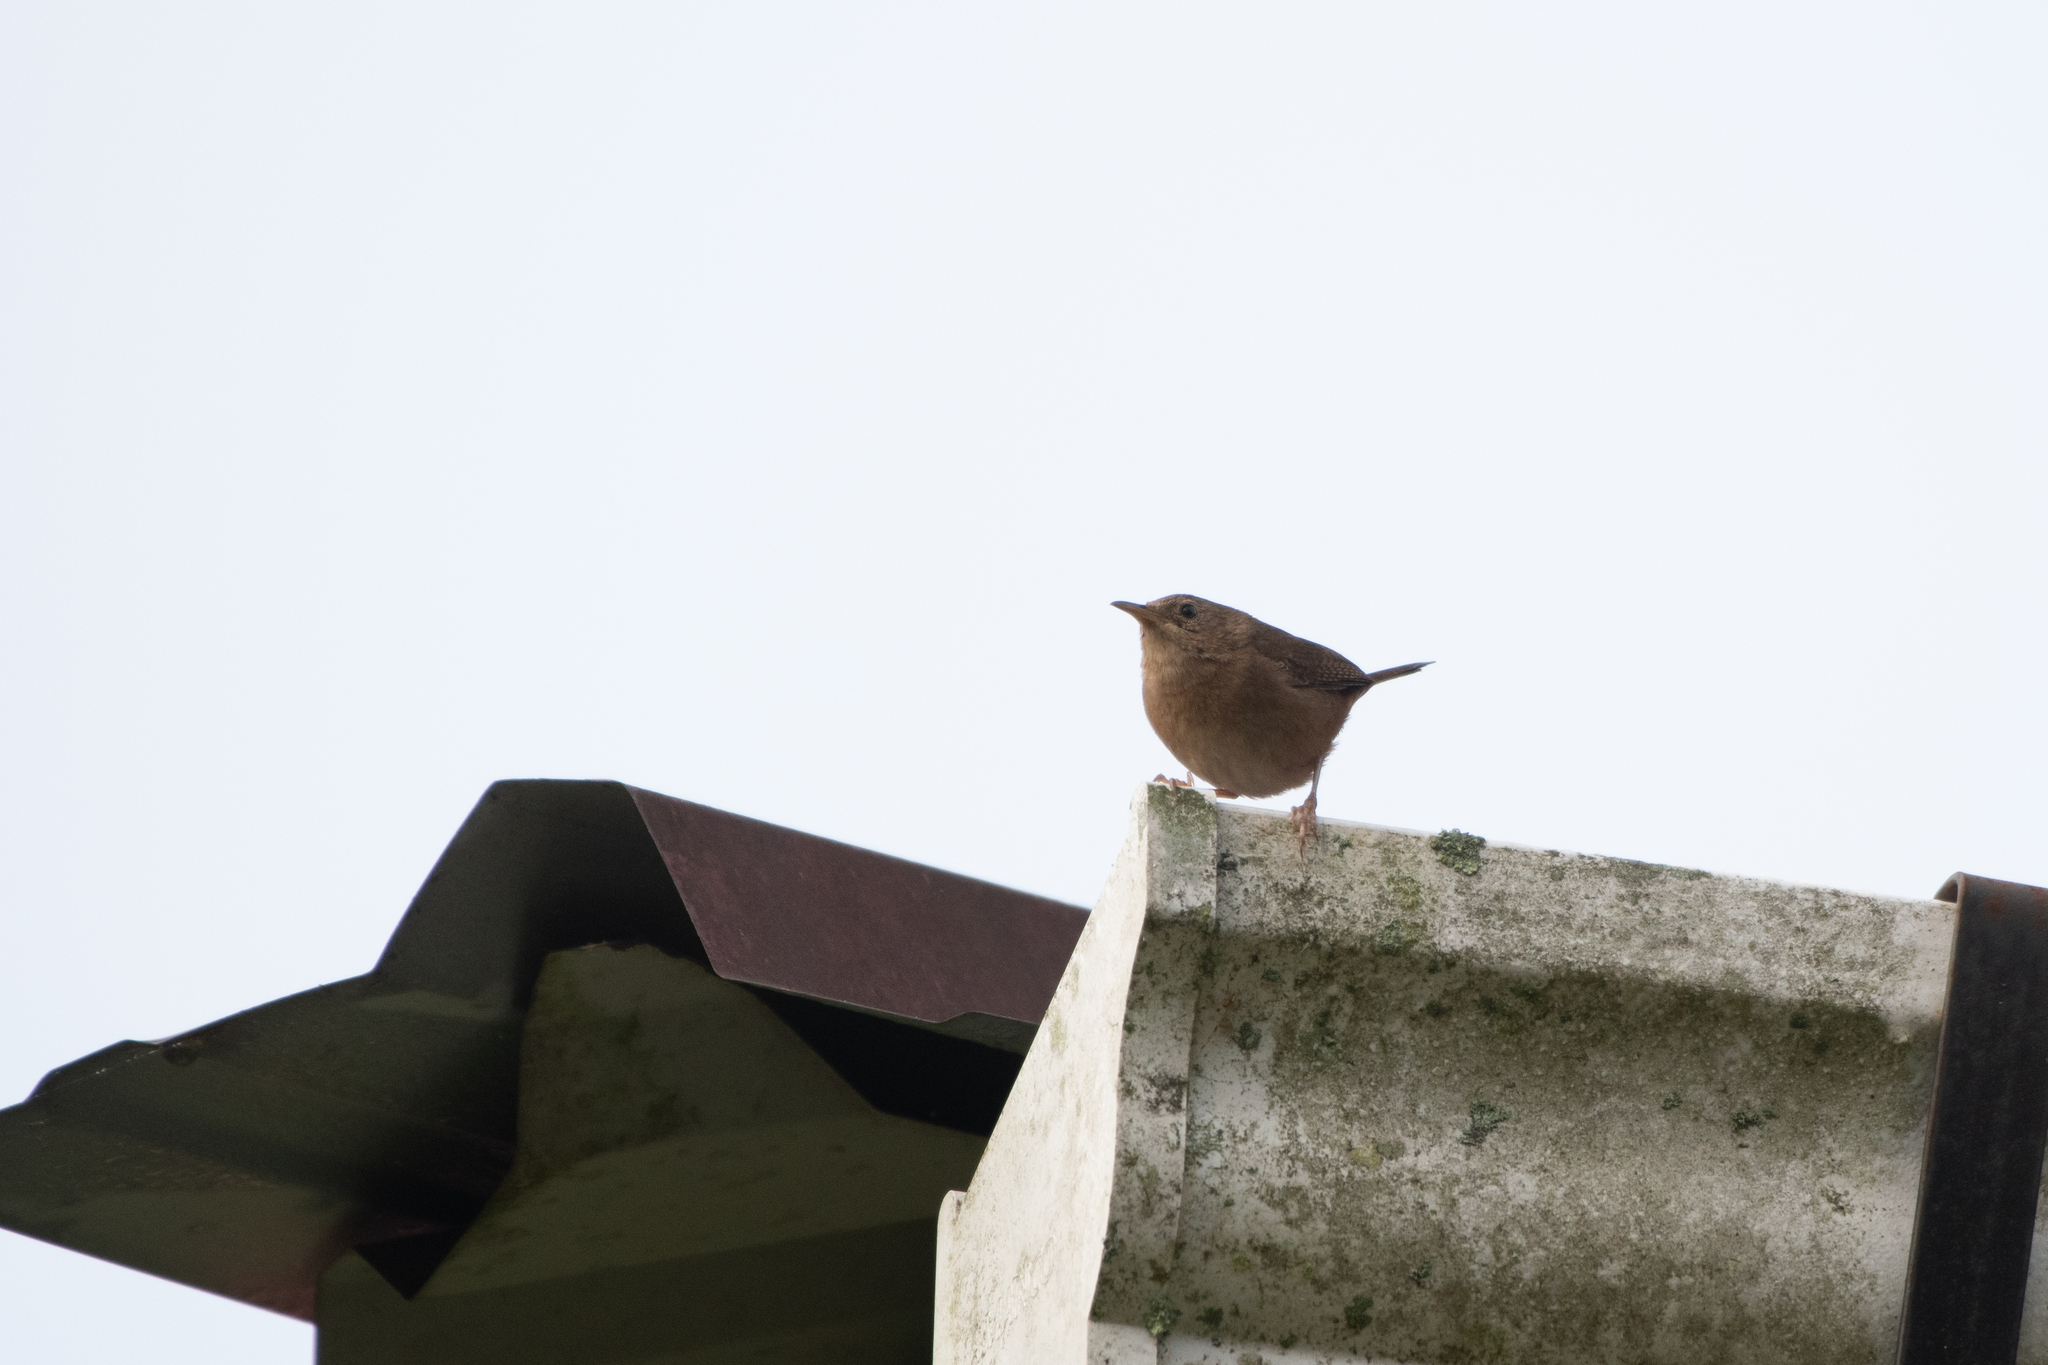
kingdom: Animalia
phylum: Chordata
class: Aves
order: Passeriformes
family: Troglodytidae
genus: Troglodytes
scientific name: Troglodytes aedon
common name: House wren
